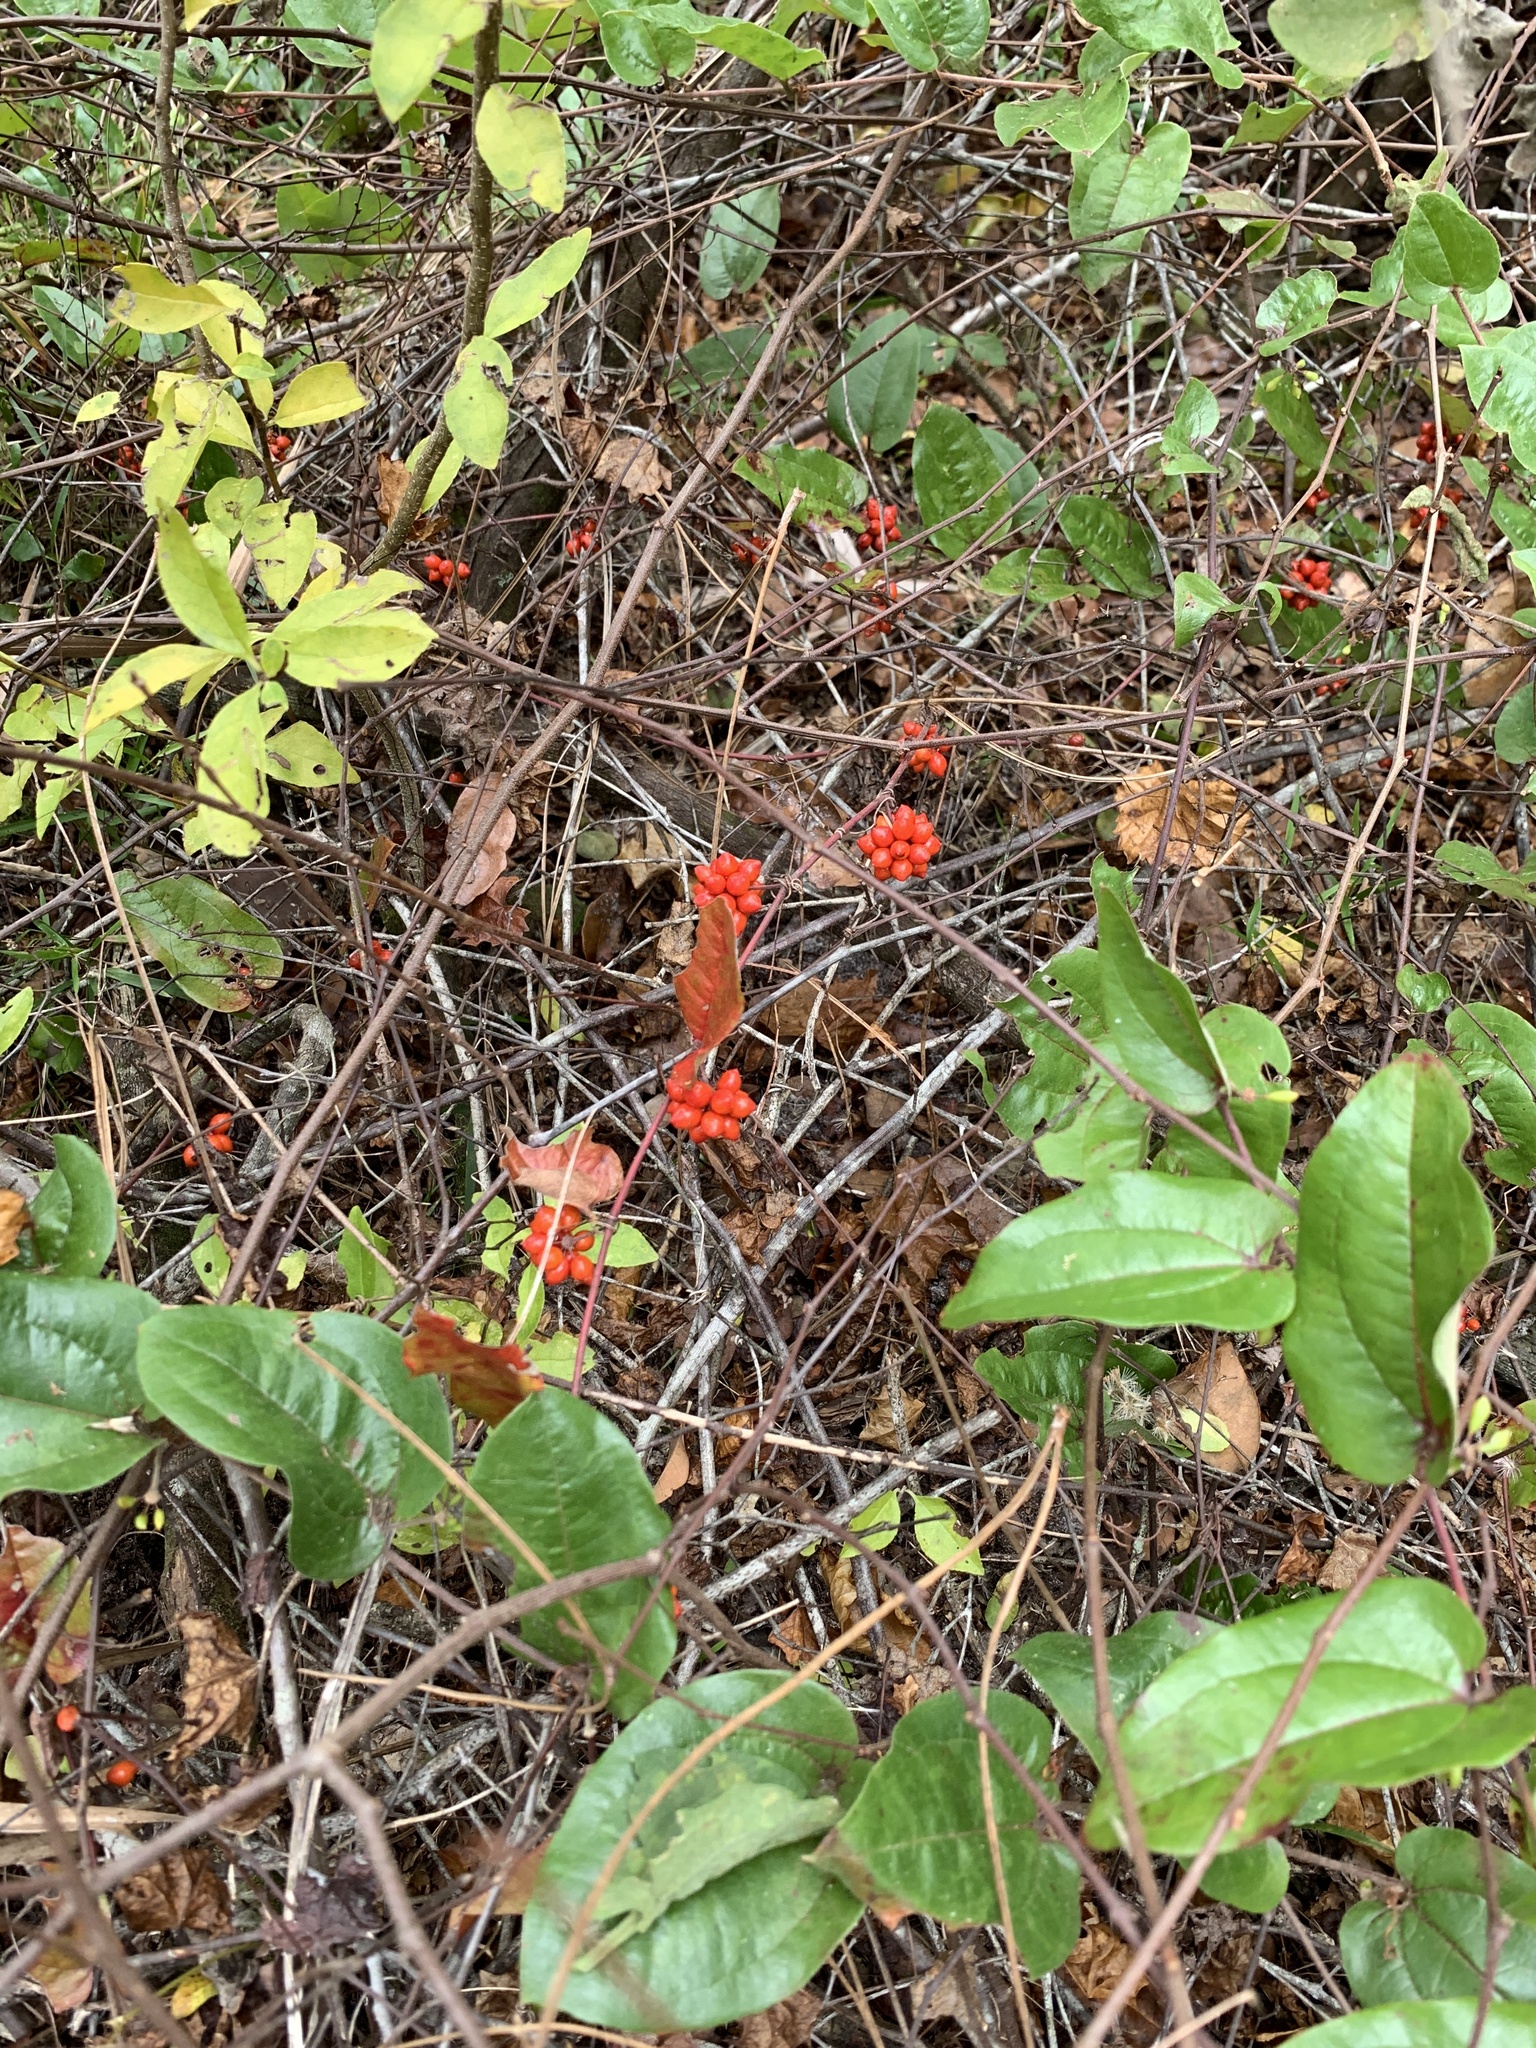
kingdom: Plantae
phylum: Tracheophyta
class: Liliopsida
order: Liliales
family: Smilacaceae
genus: Smilax
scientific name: Smilax pumila
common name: Sarsaparilla-vine
